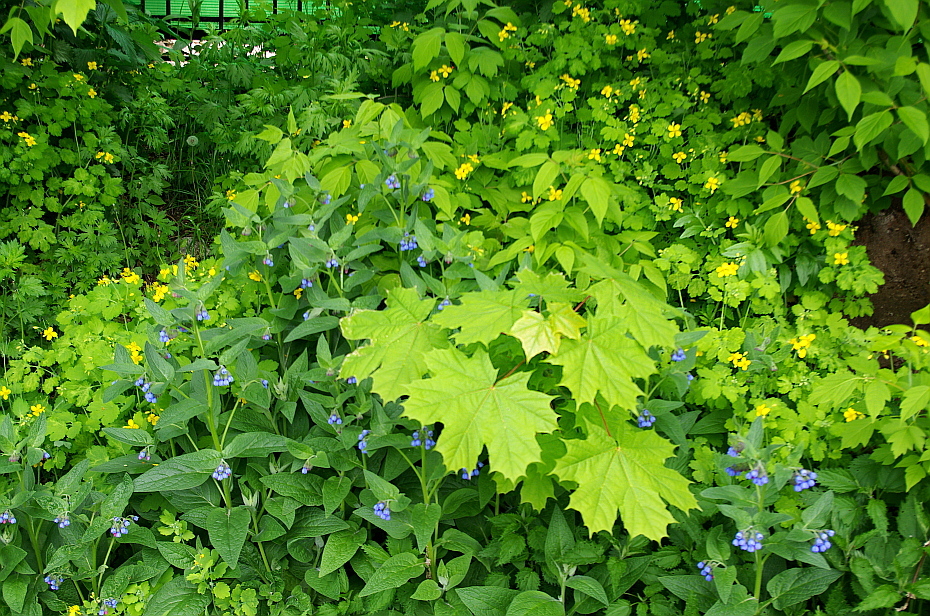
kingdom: Plantae
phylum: Tracheophyta
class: Magnoliopsida
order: Ranunculales
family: Papaveraceae
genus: Chelidonium
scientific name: Chelidonium majus
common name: Greater celandine
